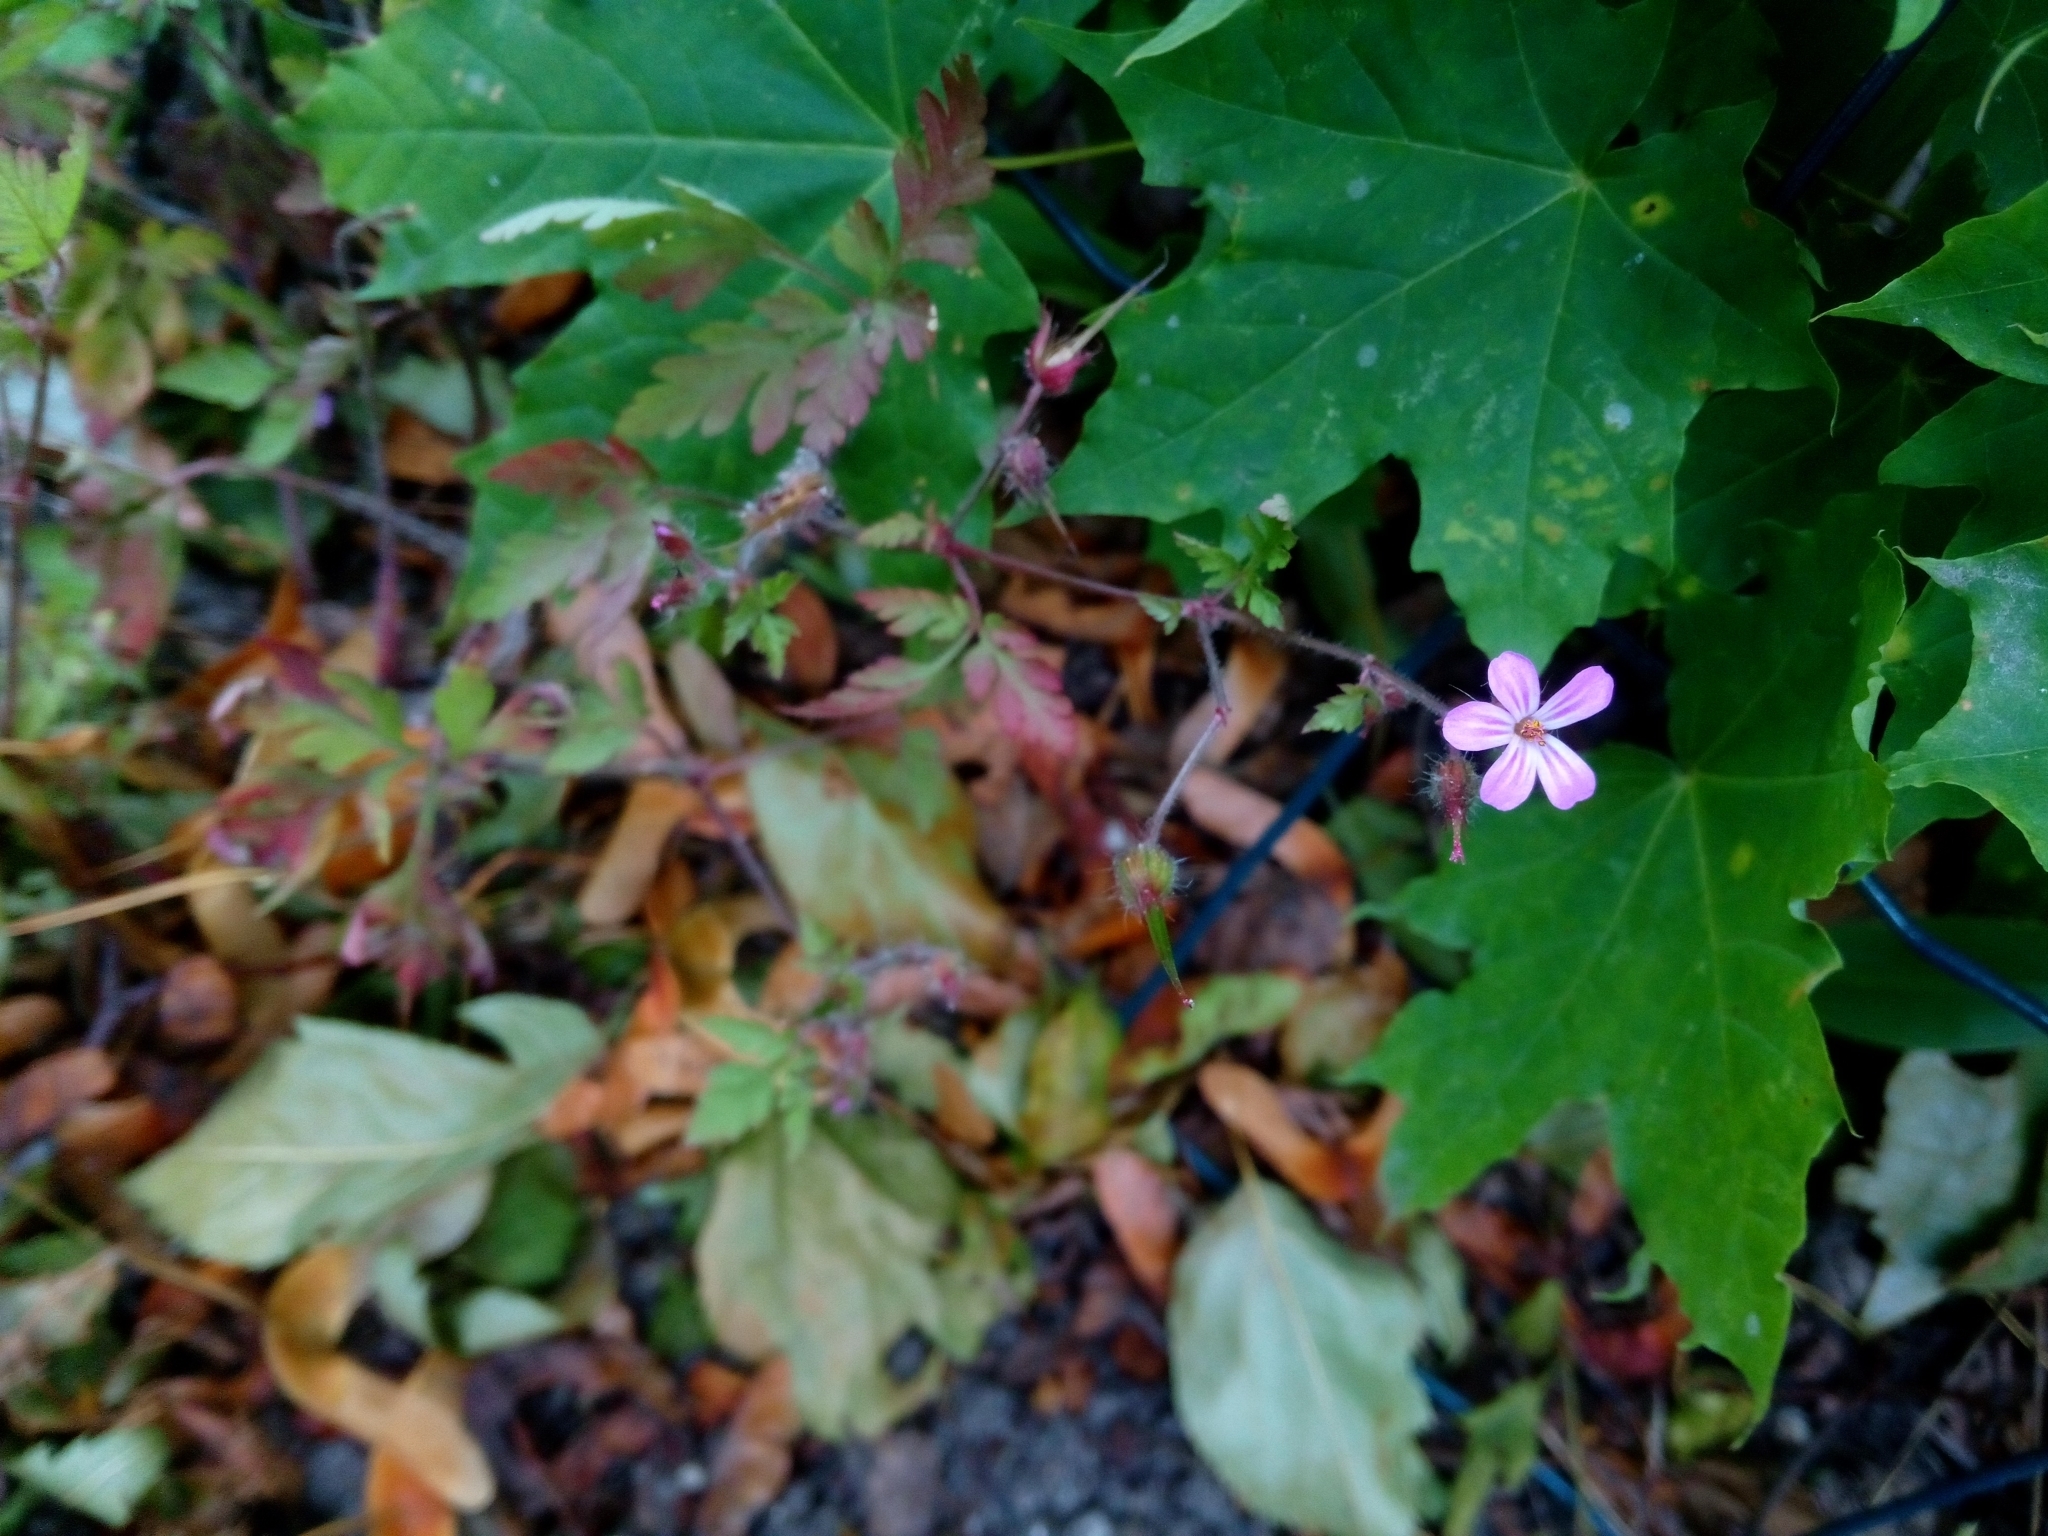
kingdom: Plantae
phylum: Tracheophyta
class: Magnoliopsida
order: Geraniales
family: Geraniaceae
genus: Geranium
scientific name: Geranium robertianum
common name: Herb-robert
